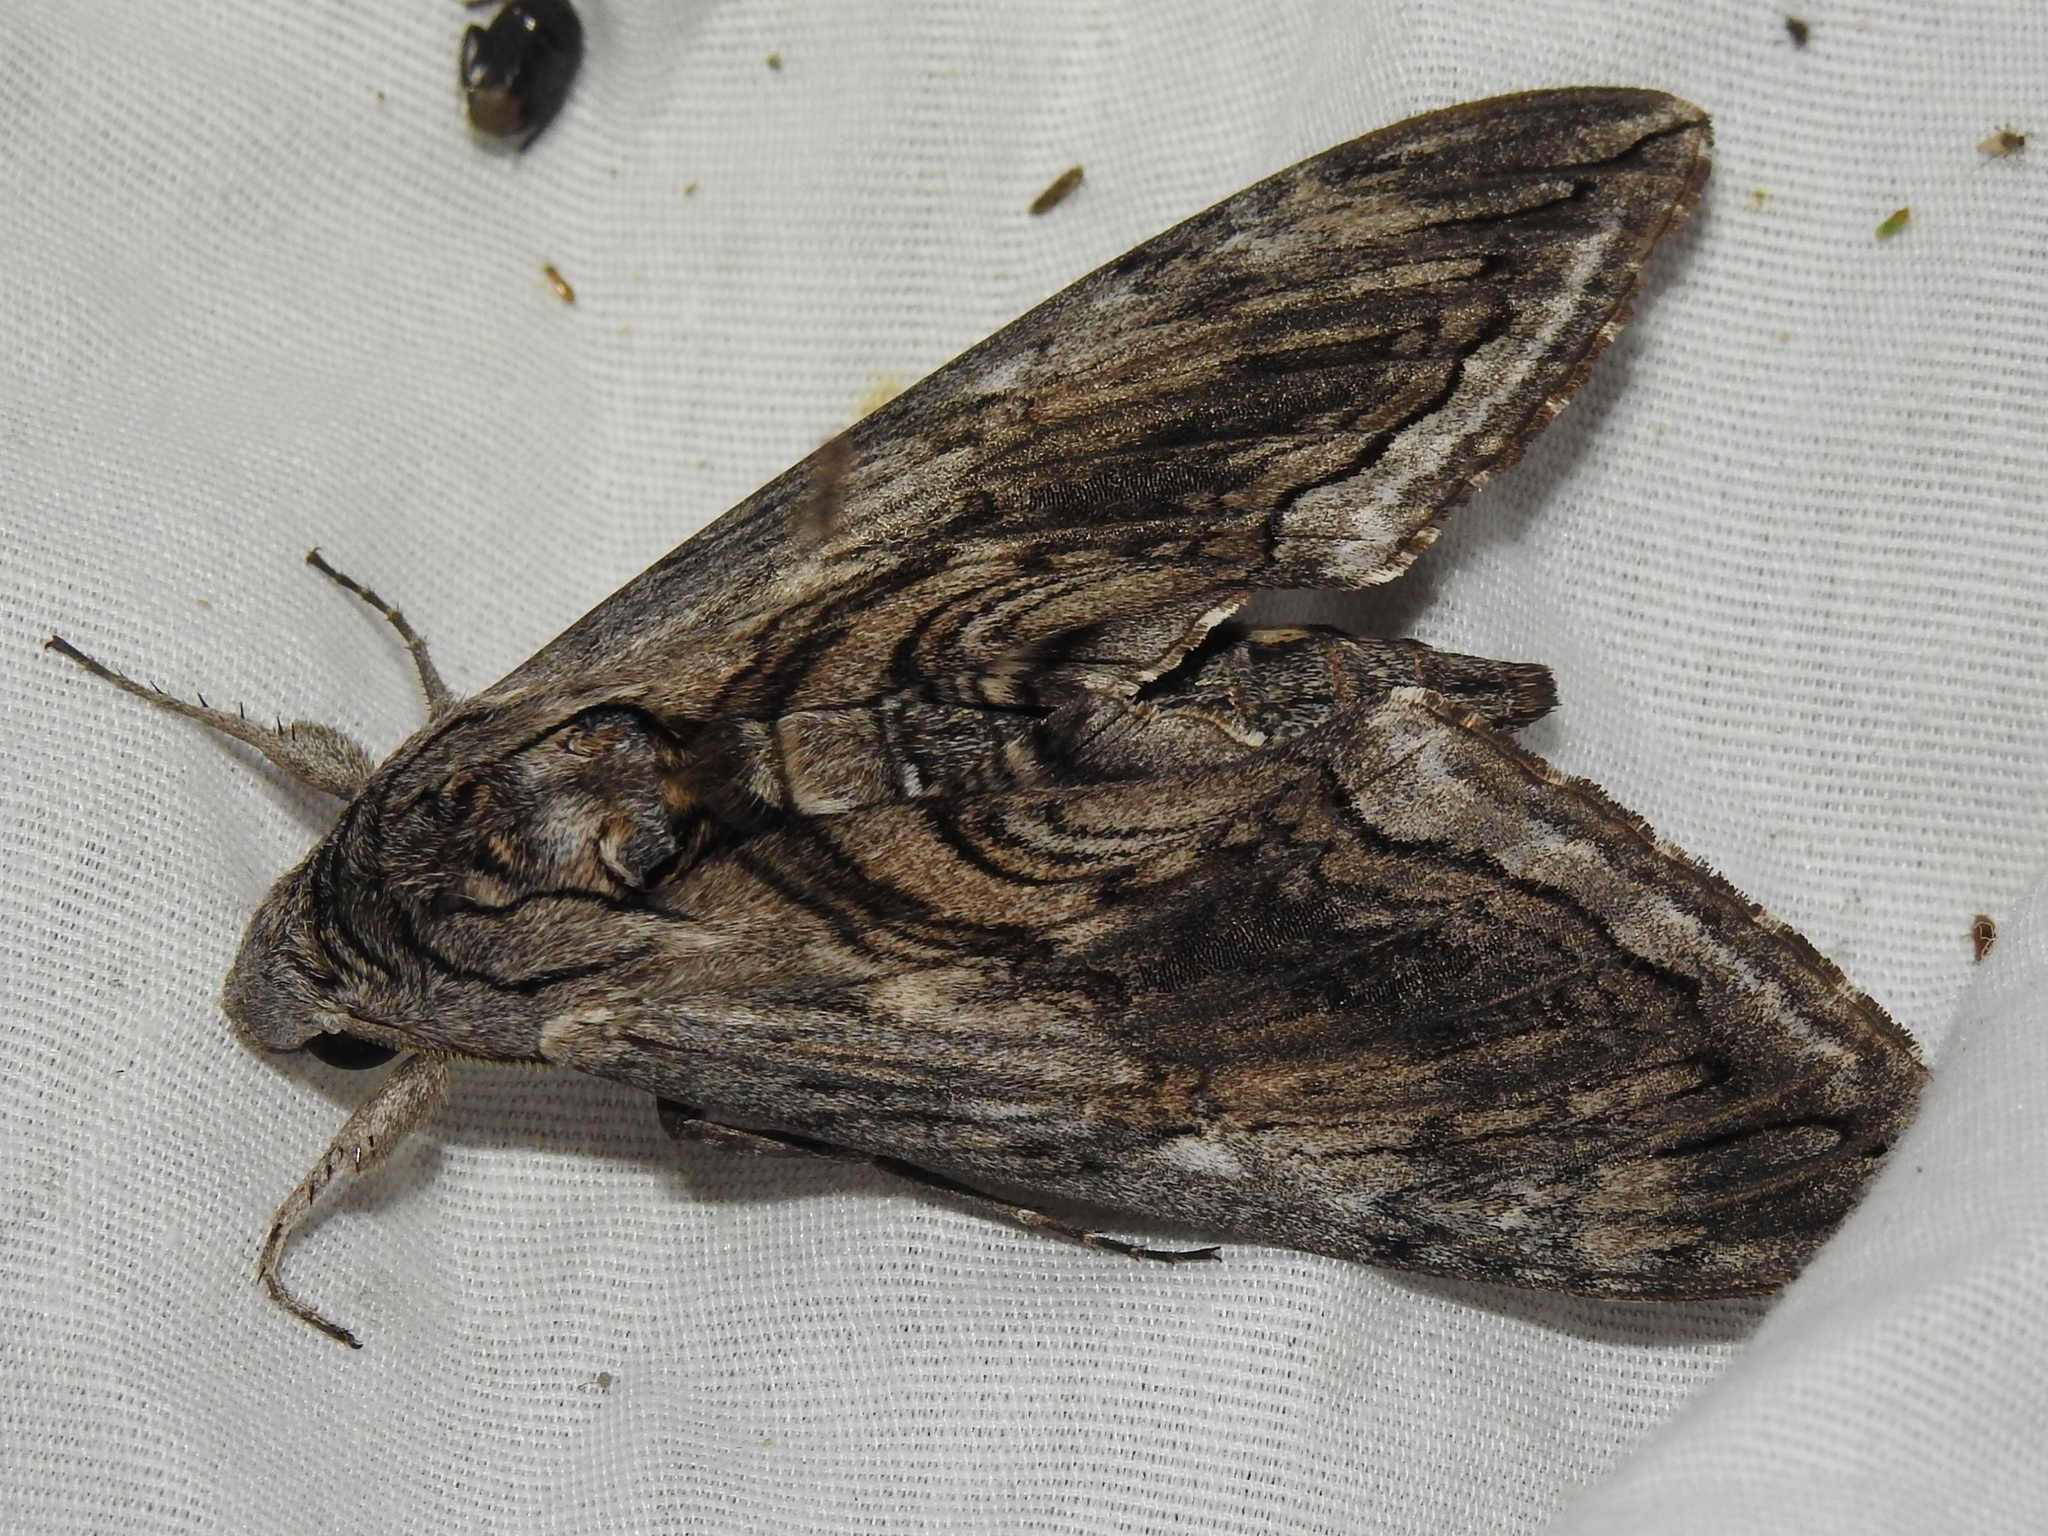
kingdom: Animalia
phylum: Arthropoda
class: Insecta
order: Lepidoptera
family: Sphingidae
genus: Manduca
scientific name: Manduca quinquemaculatus
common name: Five-spotted hawk-moth
